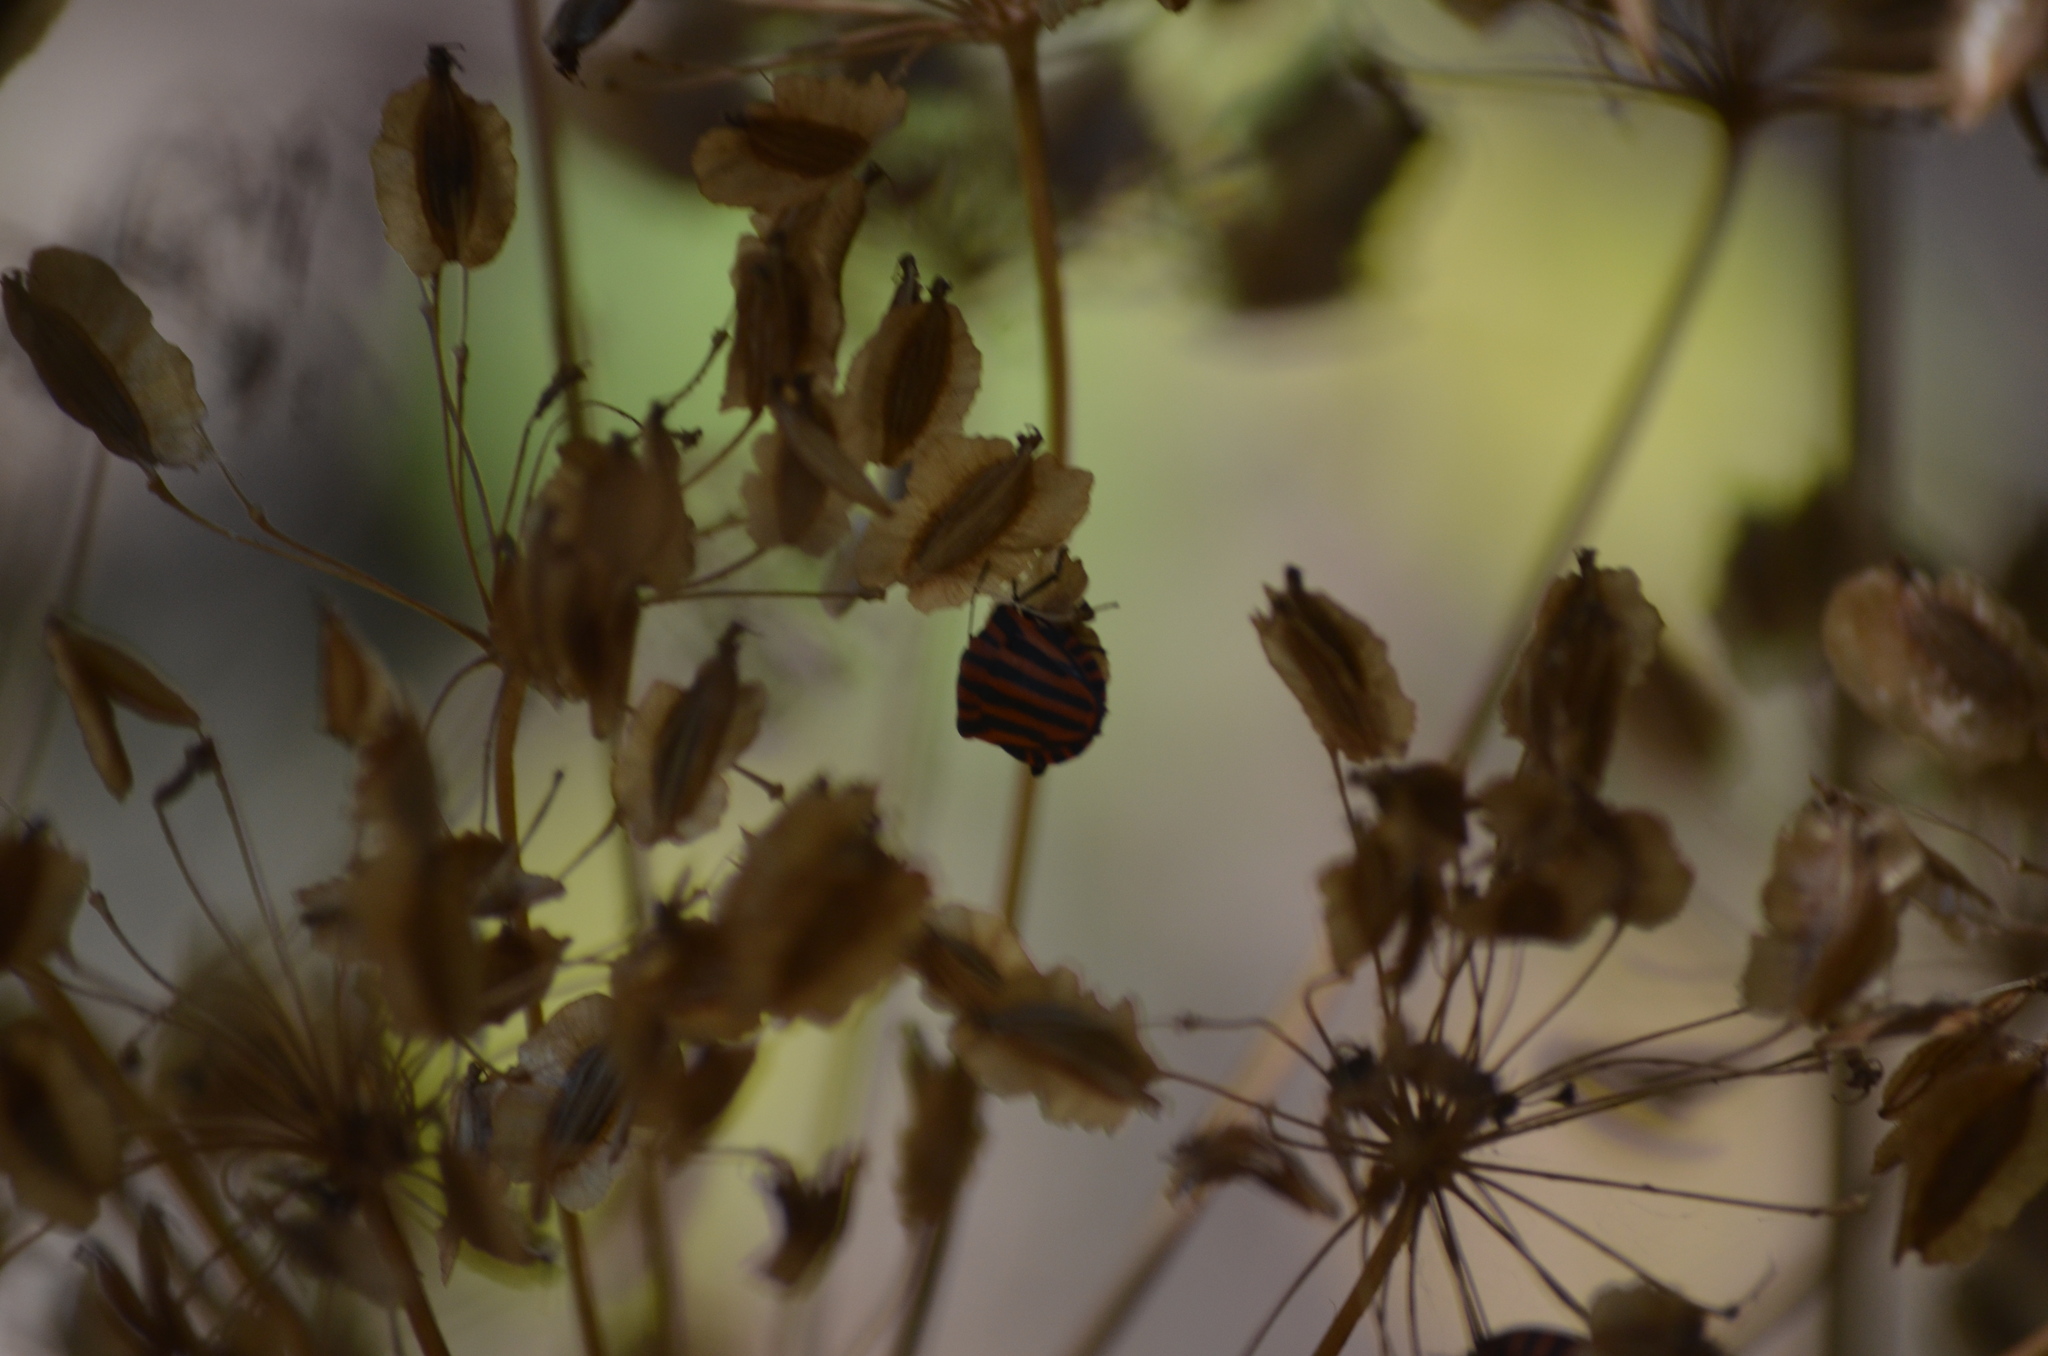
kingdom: Animalia
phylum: Arthropoda
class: Insecta
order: Hemiptera
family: Pentatomidae
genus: Graphosoma
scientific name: Graphosoma italicum
